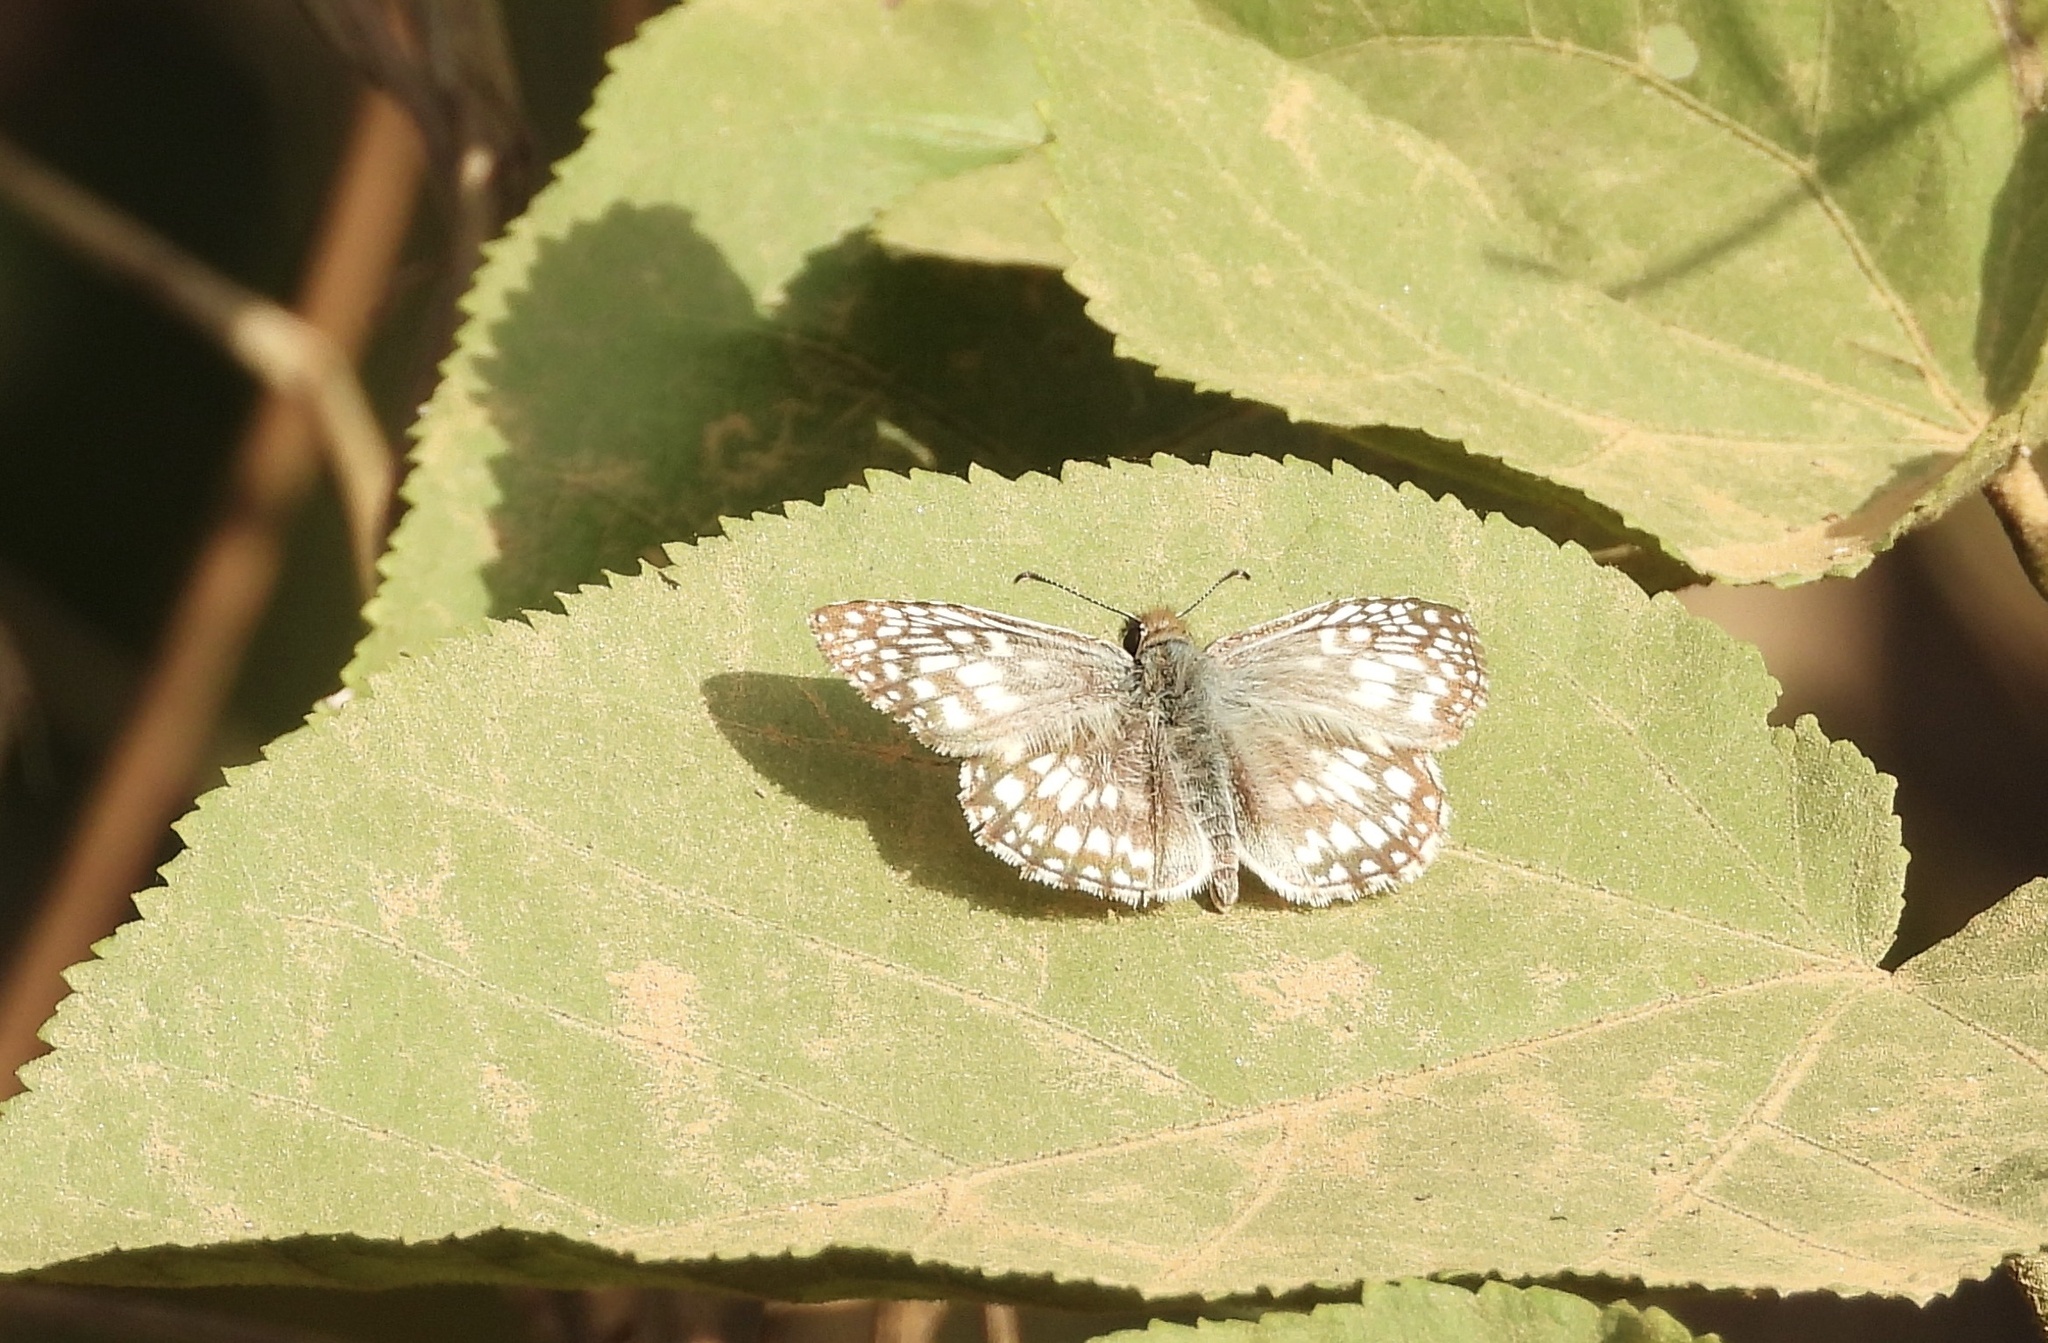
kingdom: Animalia
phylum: Arthropoda
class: Insecta
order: Lepidoptera
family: Hesperiidae
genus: Pyrgus
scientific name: Pyrgus oileus
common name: Tropical checkered-skipper
